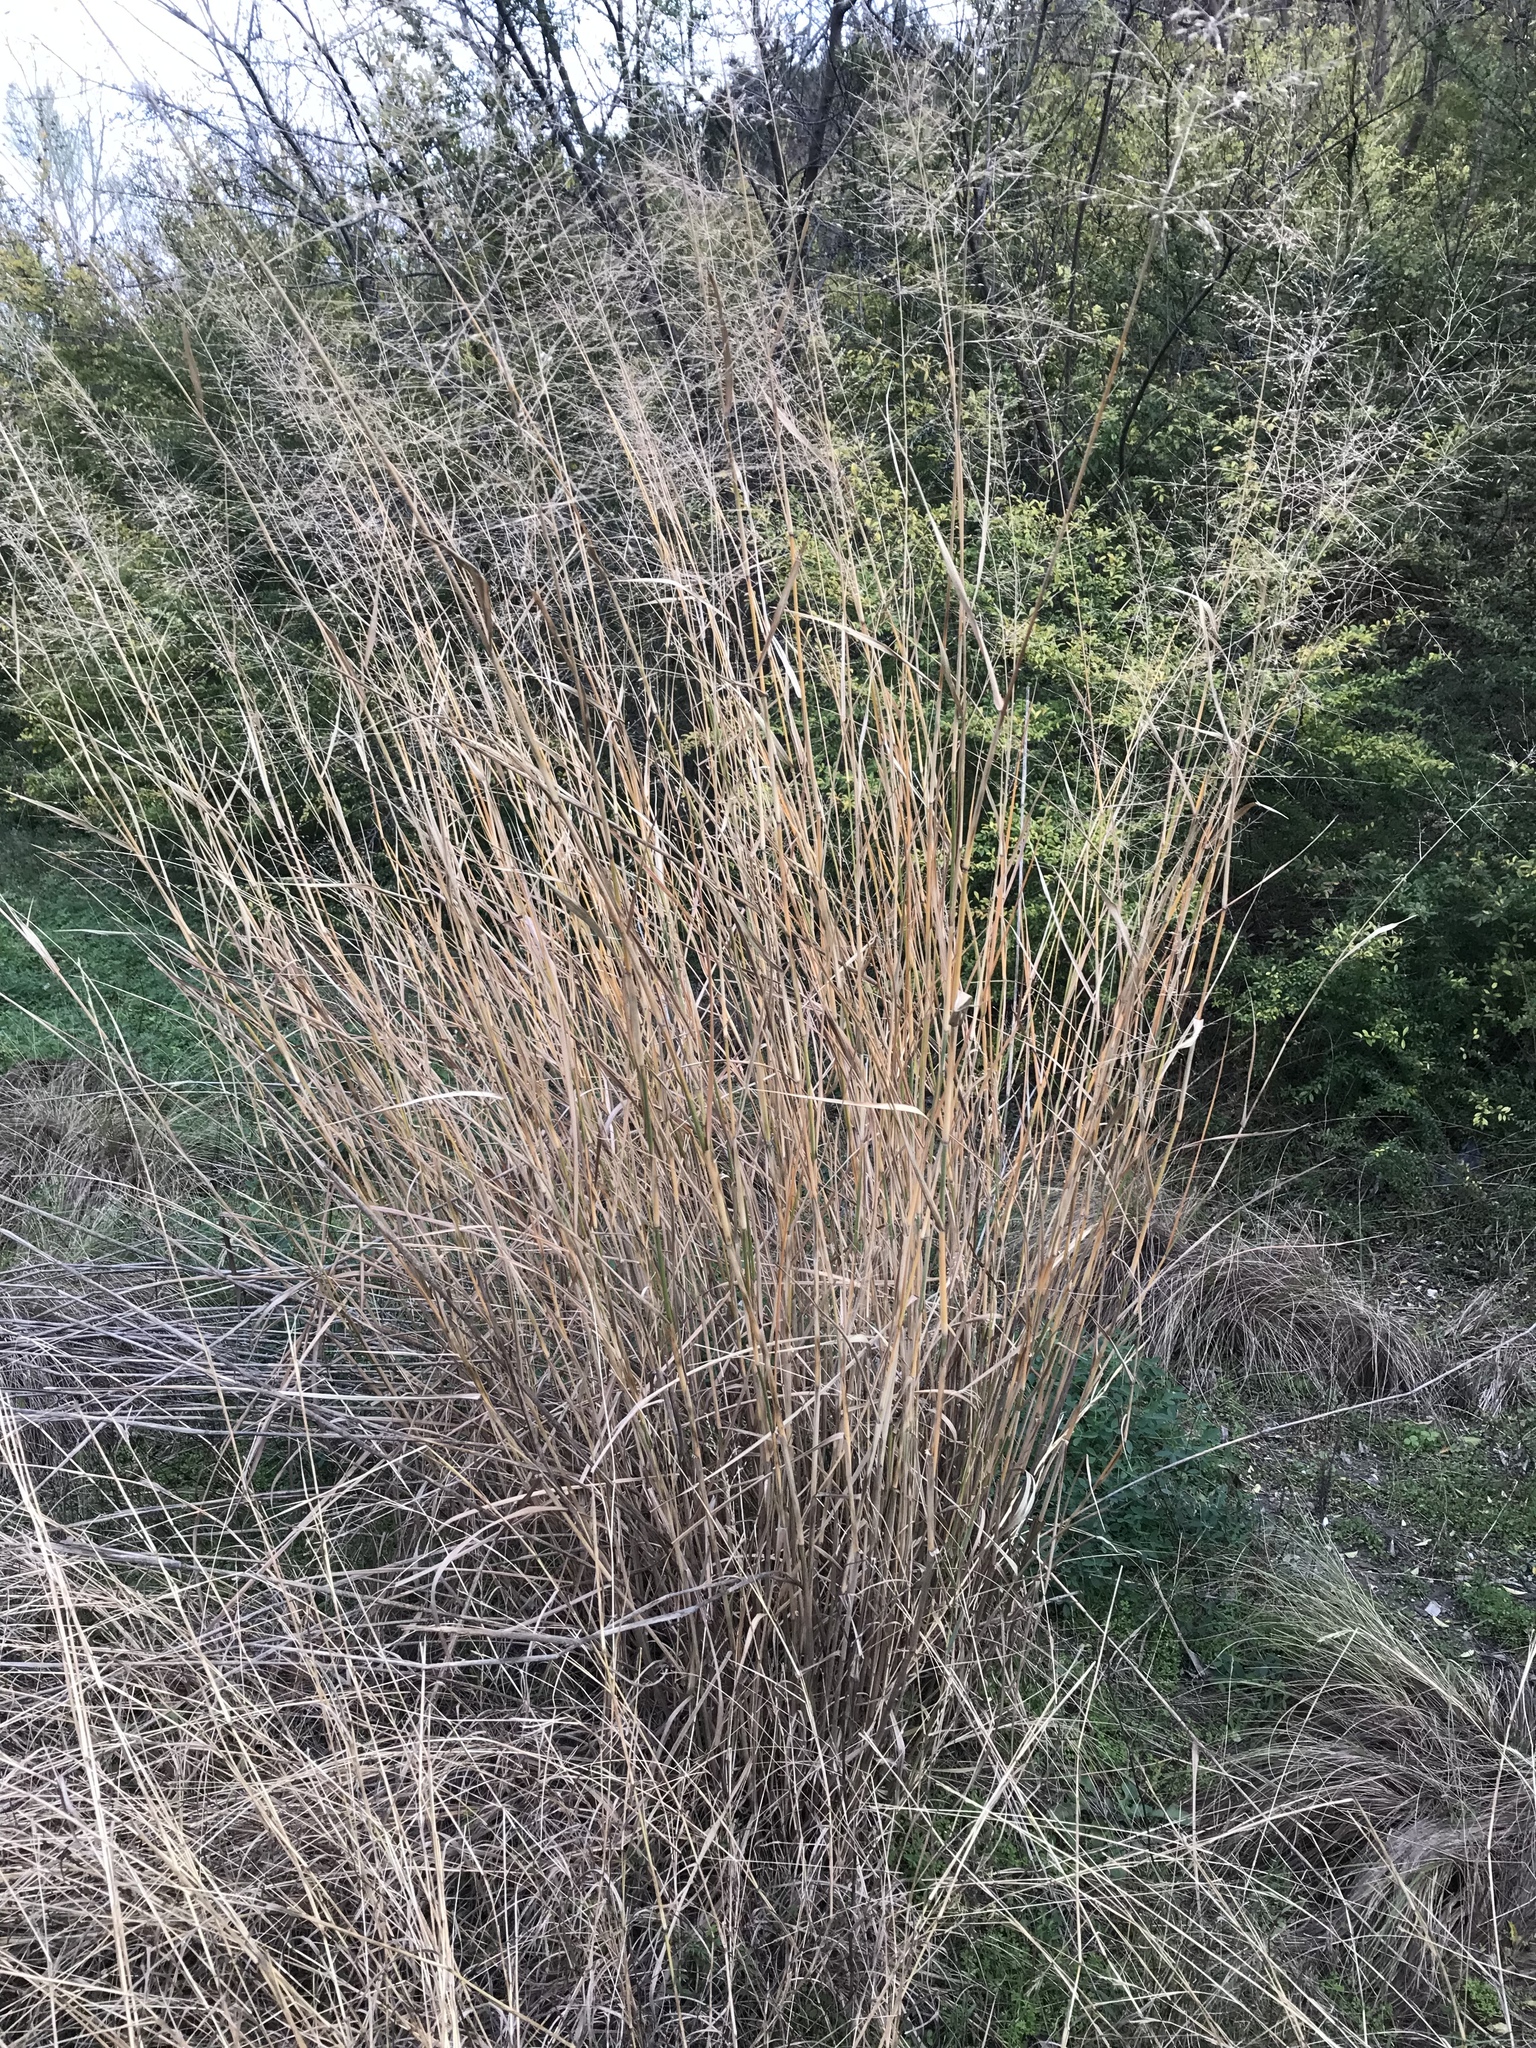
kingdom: Plantae
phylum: Tracheophyta
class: Liliopsida
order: Poales
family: Poaceae
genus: Panicum
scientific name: Panicum virgatum
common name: Switchgrass
